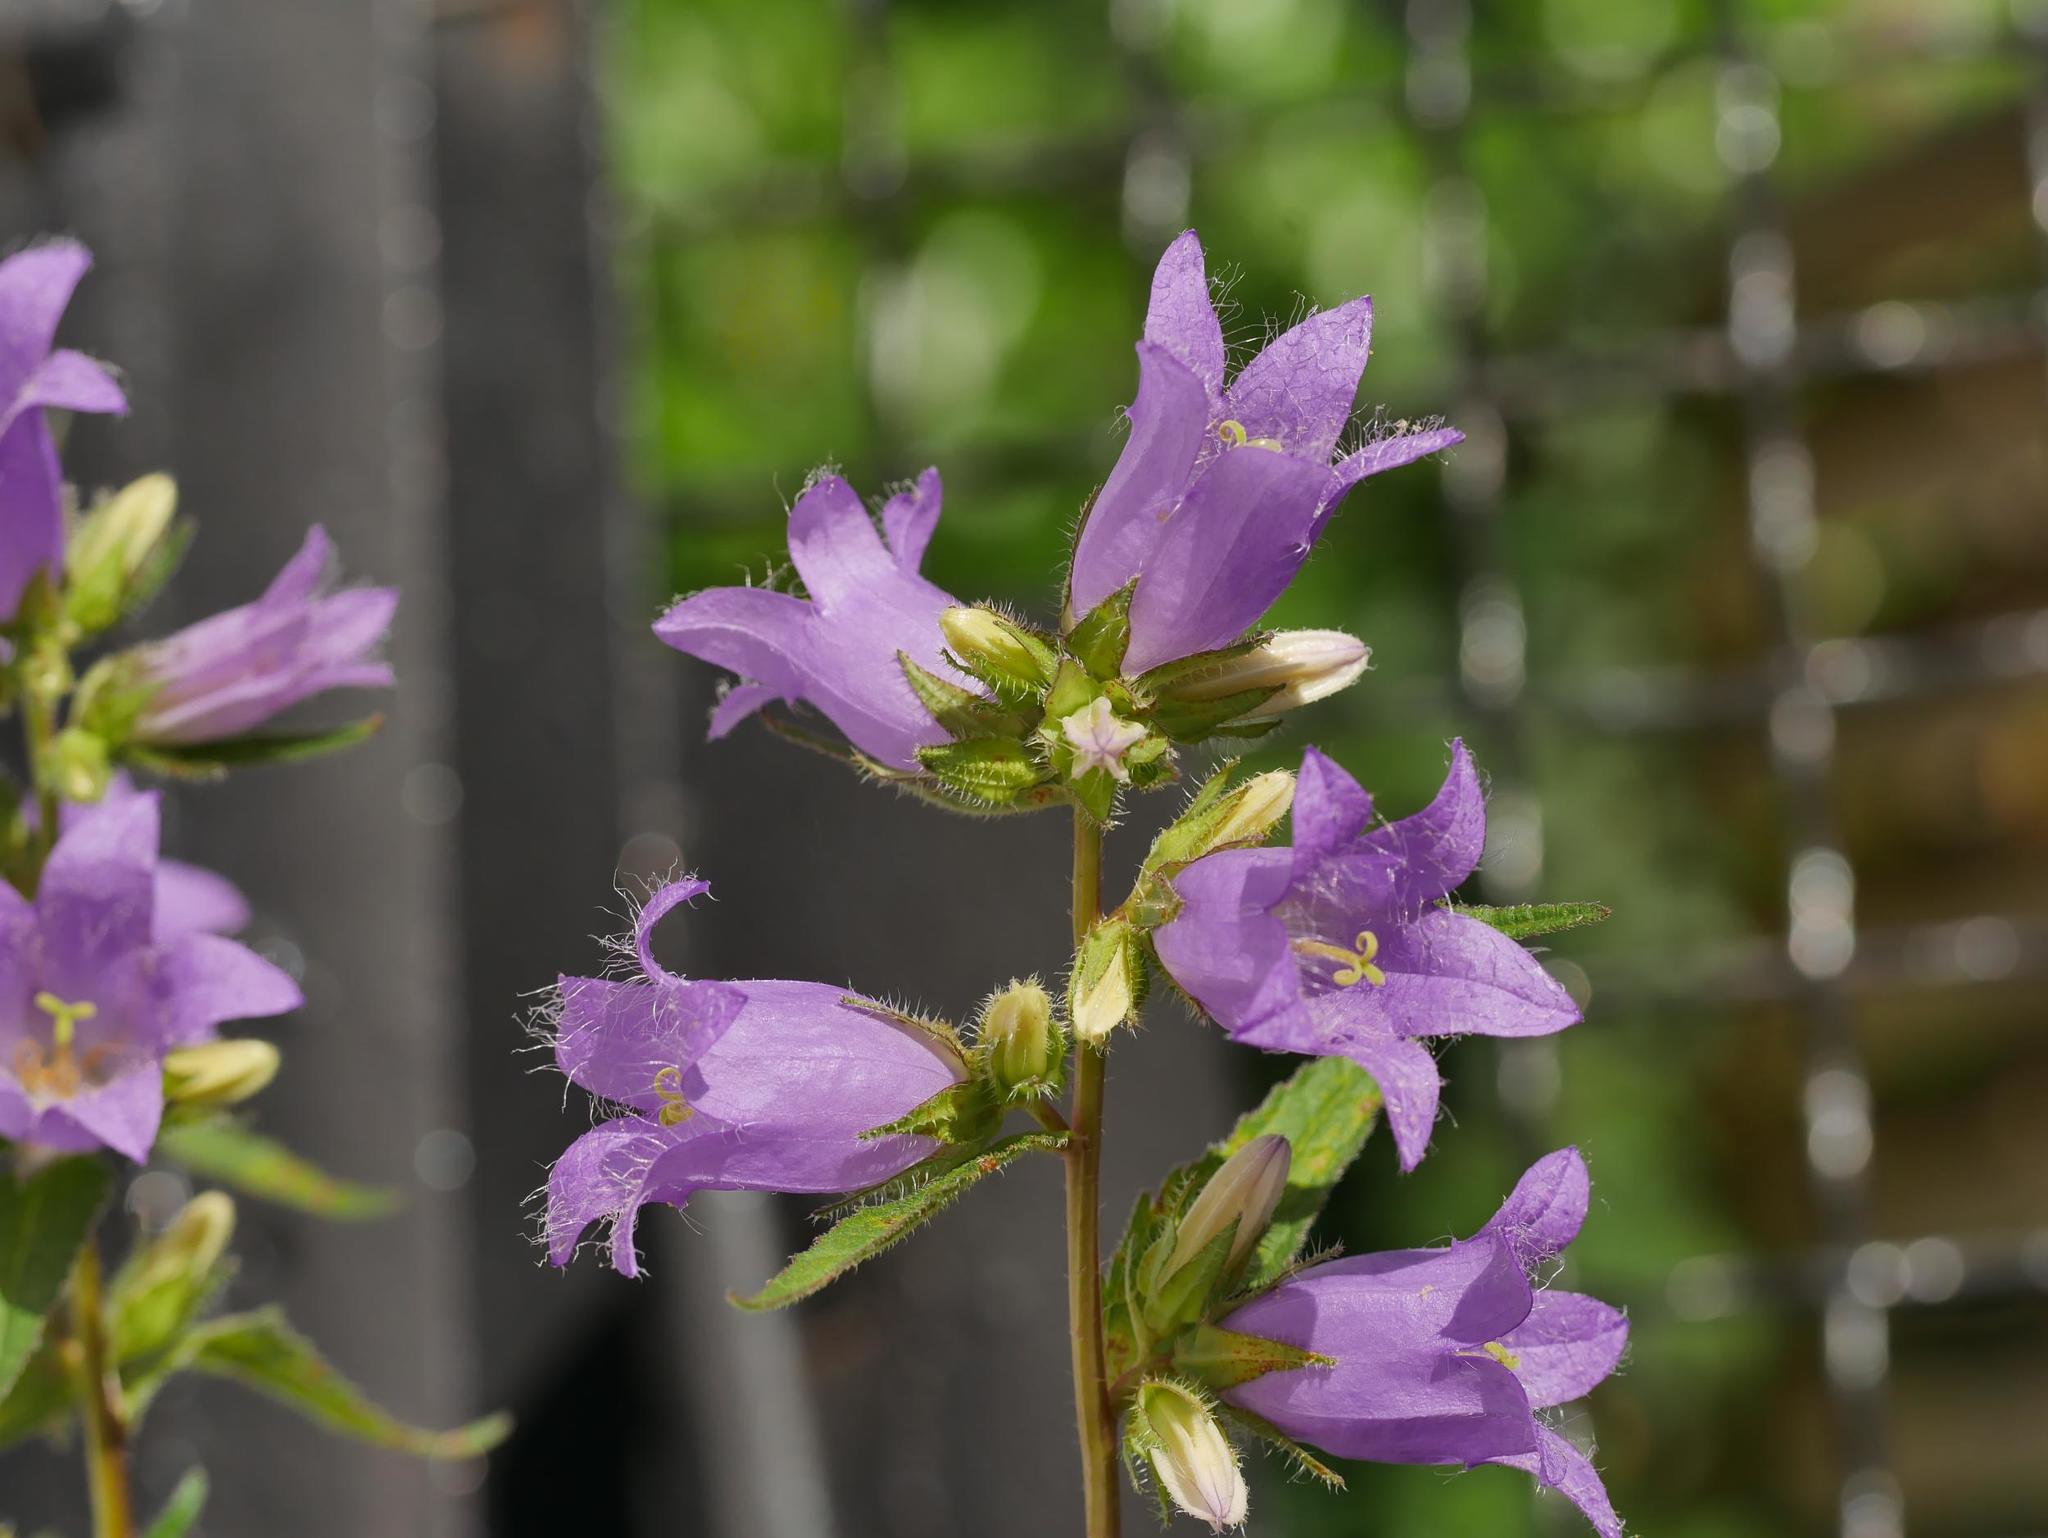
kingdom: Plantae
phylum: Tracheophyta
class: Magnoliopsida
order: Asterales
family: Campanulaceae
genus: Campanula
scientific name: Campanula trachelium
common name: Nettle-leaved bellflower
